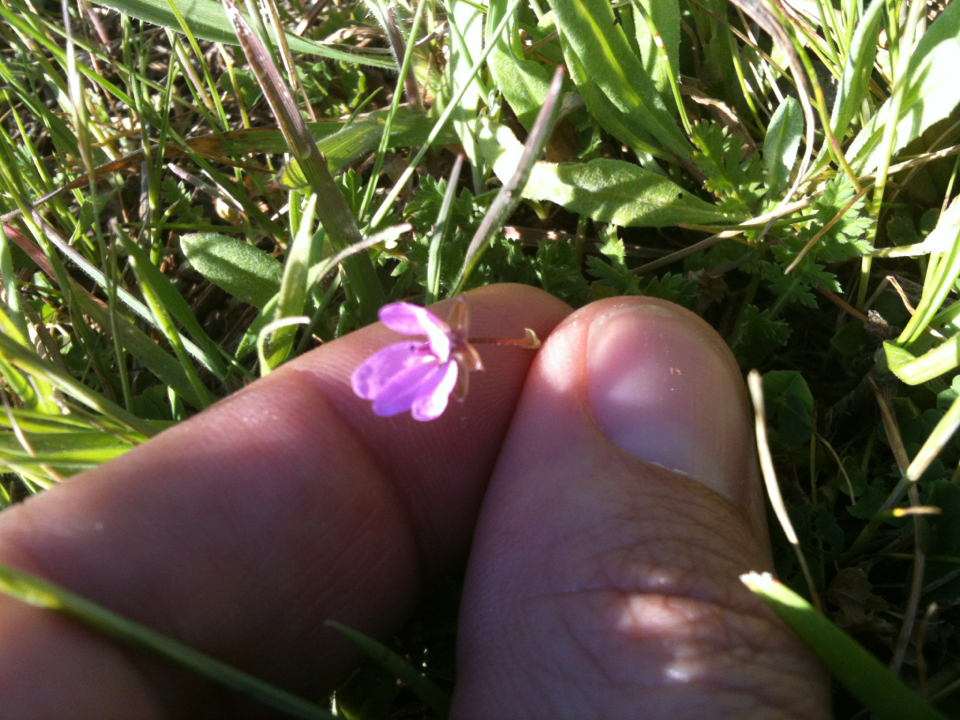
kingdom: Plantae
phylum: Tracheophyta
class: Magnoliopsida
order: Geraniales
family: Geraniaceae
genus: Erodium
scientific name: Erodium cicutarium
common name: Common stork's-bill
